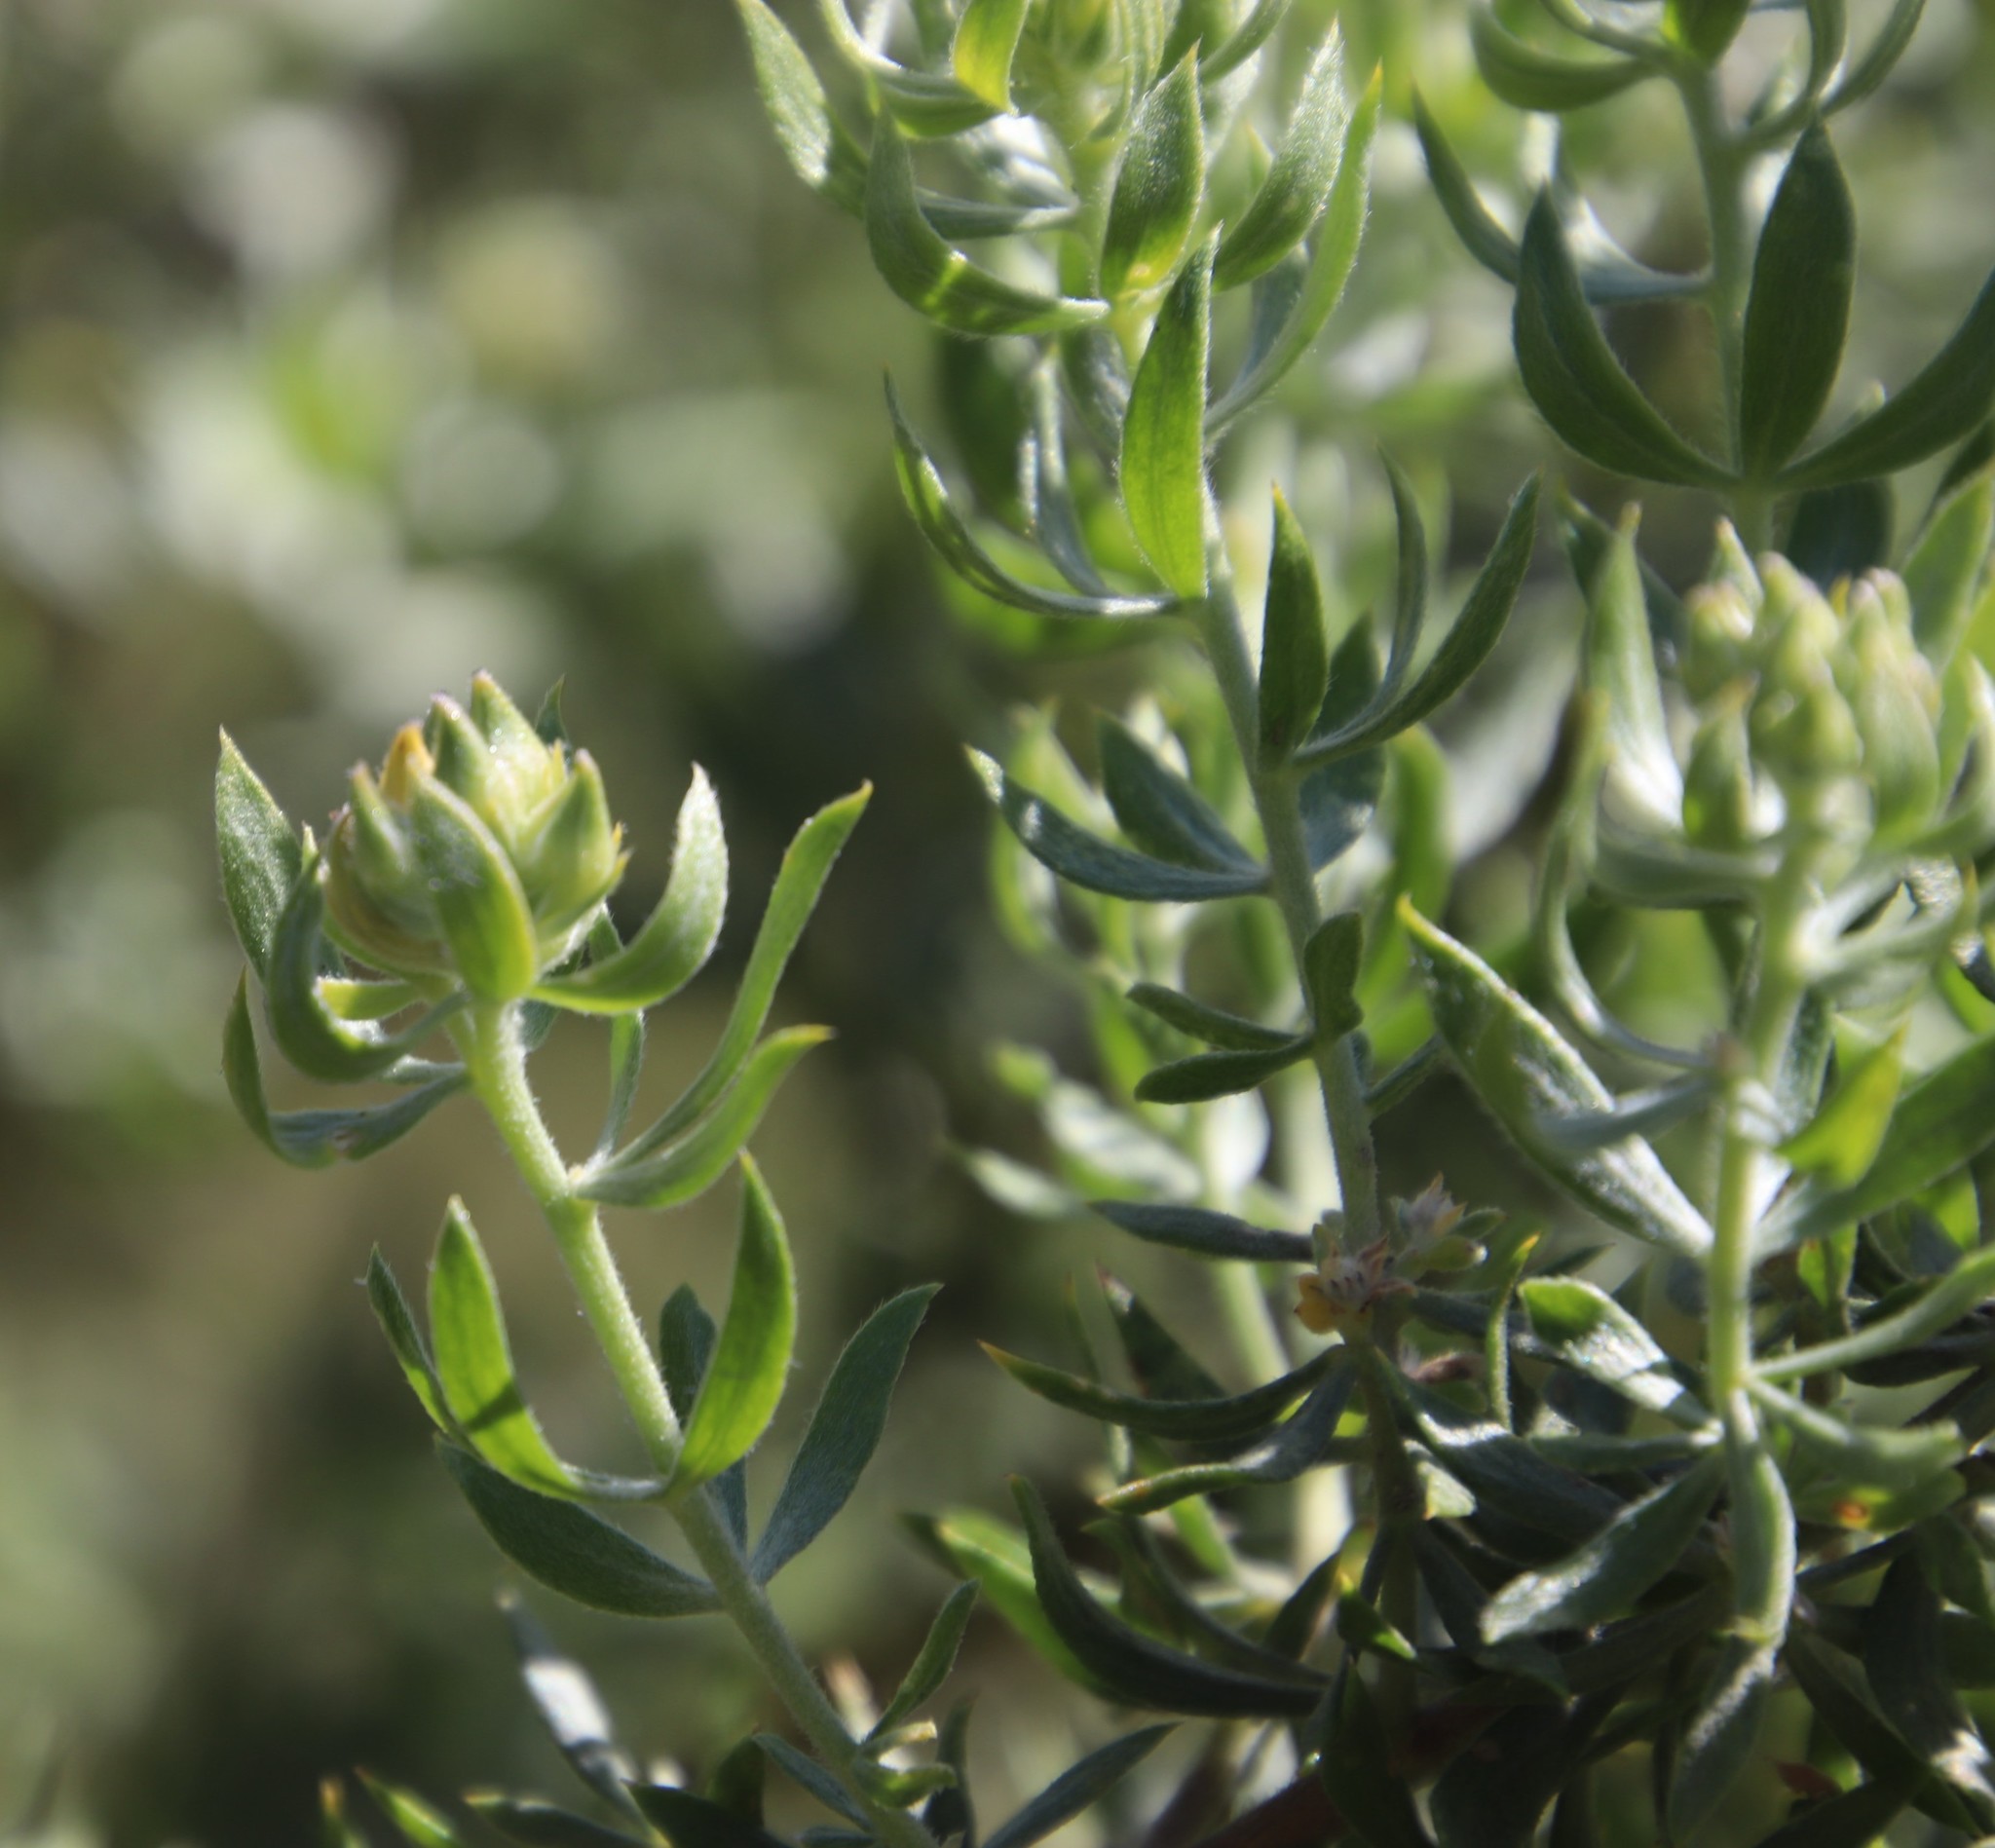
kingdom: Plantae
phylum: Tracheophyta
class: Magnoliopsida
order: Fabales
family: Fabaceae
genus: Aspalathus
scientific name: Aspalathus rugosa
